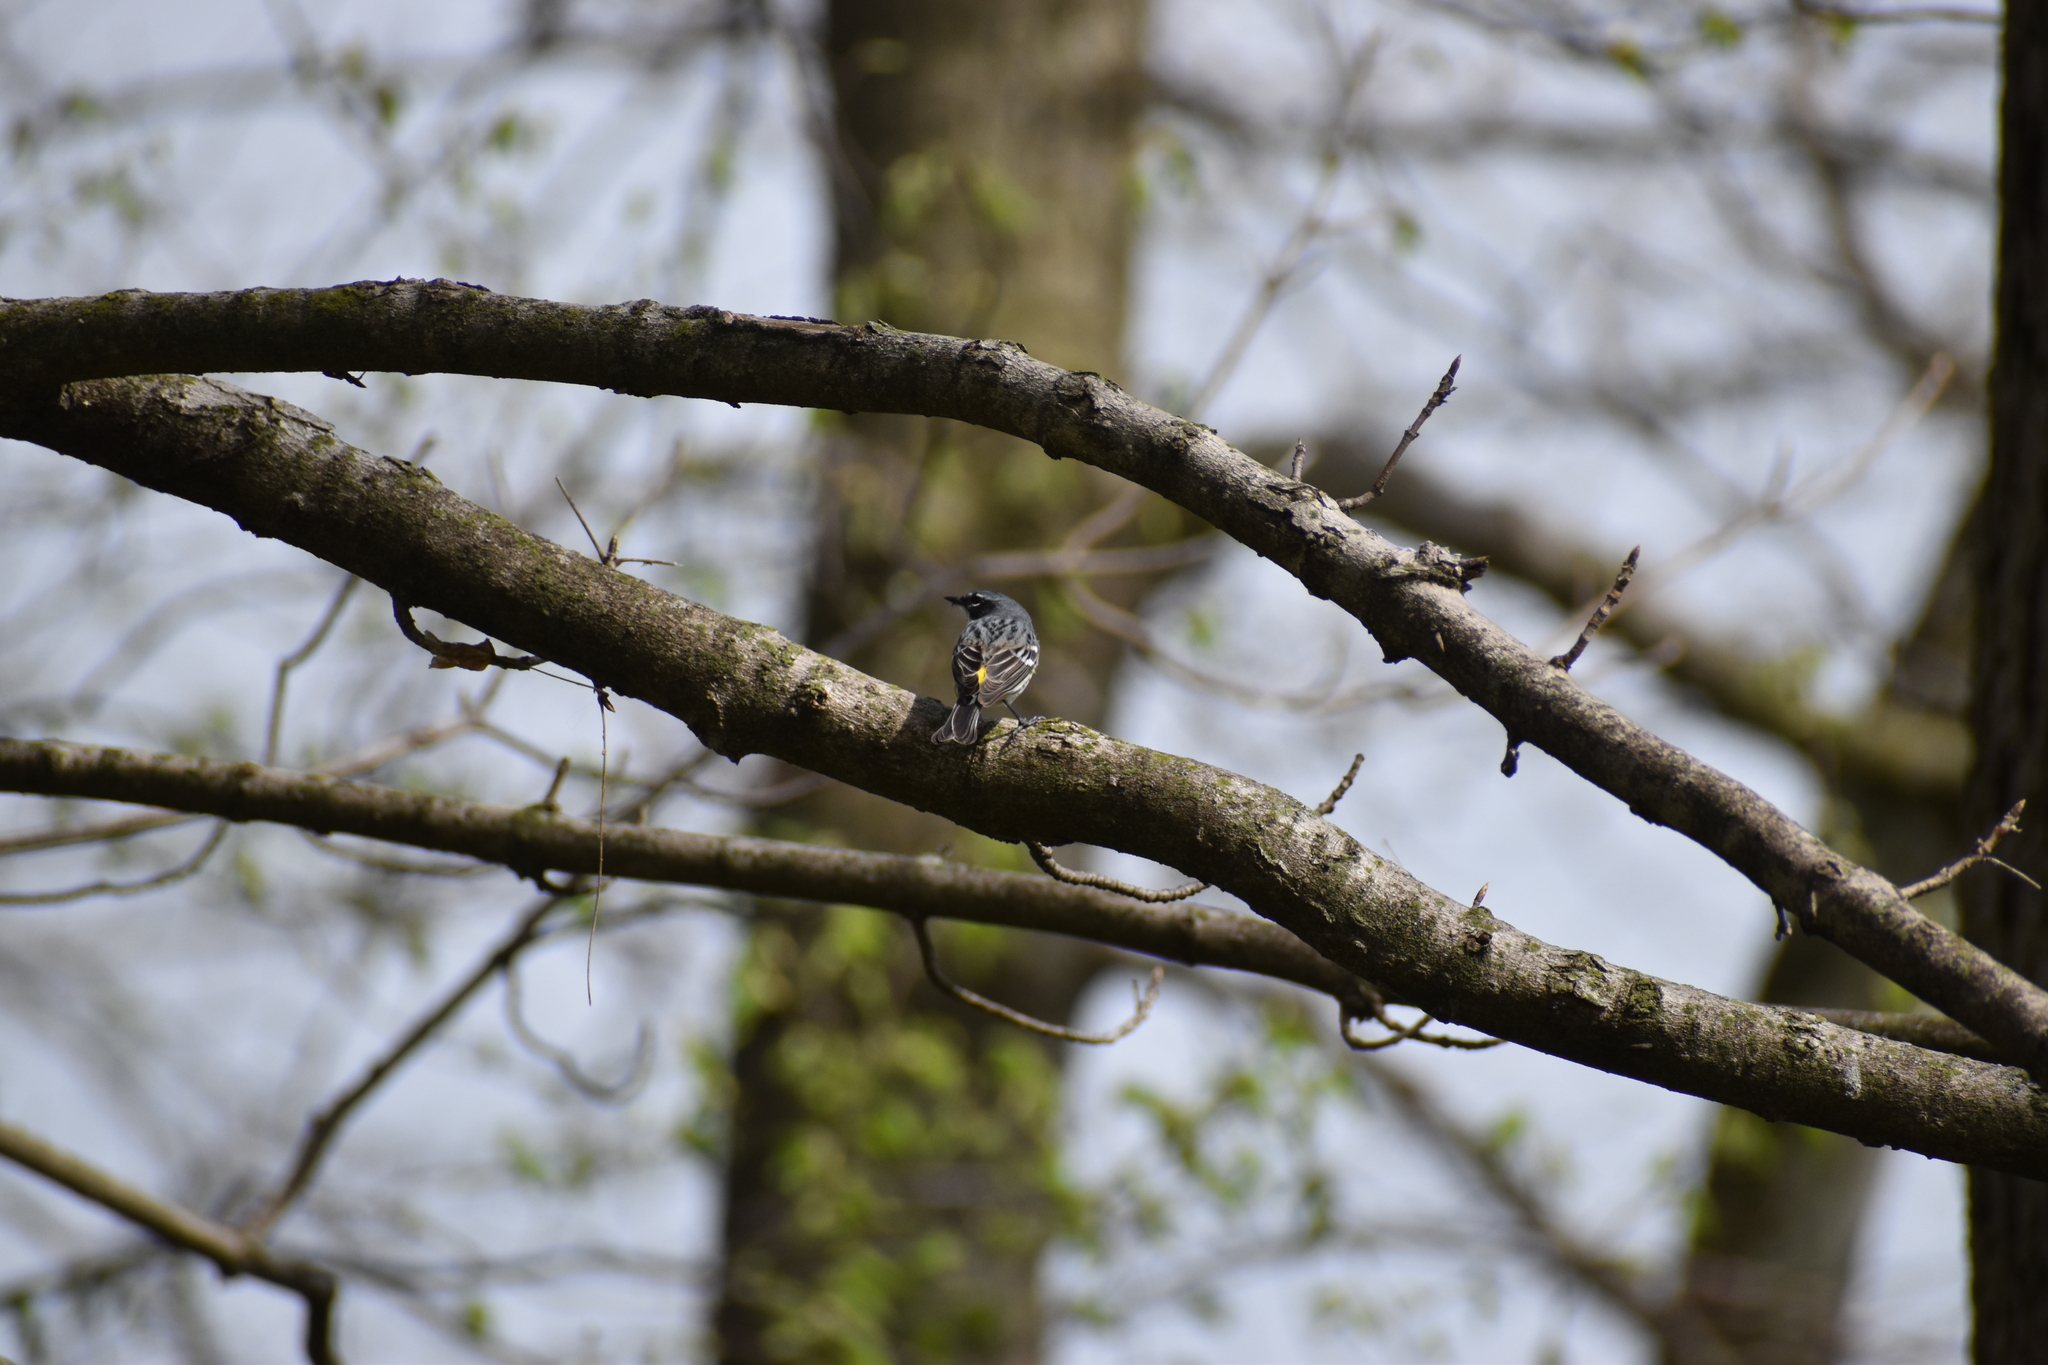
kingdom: Animalia
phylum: Chordata
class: Aves
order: Passeriformes
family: Parulidae
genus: Setophaga
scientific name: Setophaga coronata
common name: Myrtle warbler
